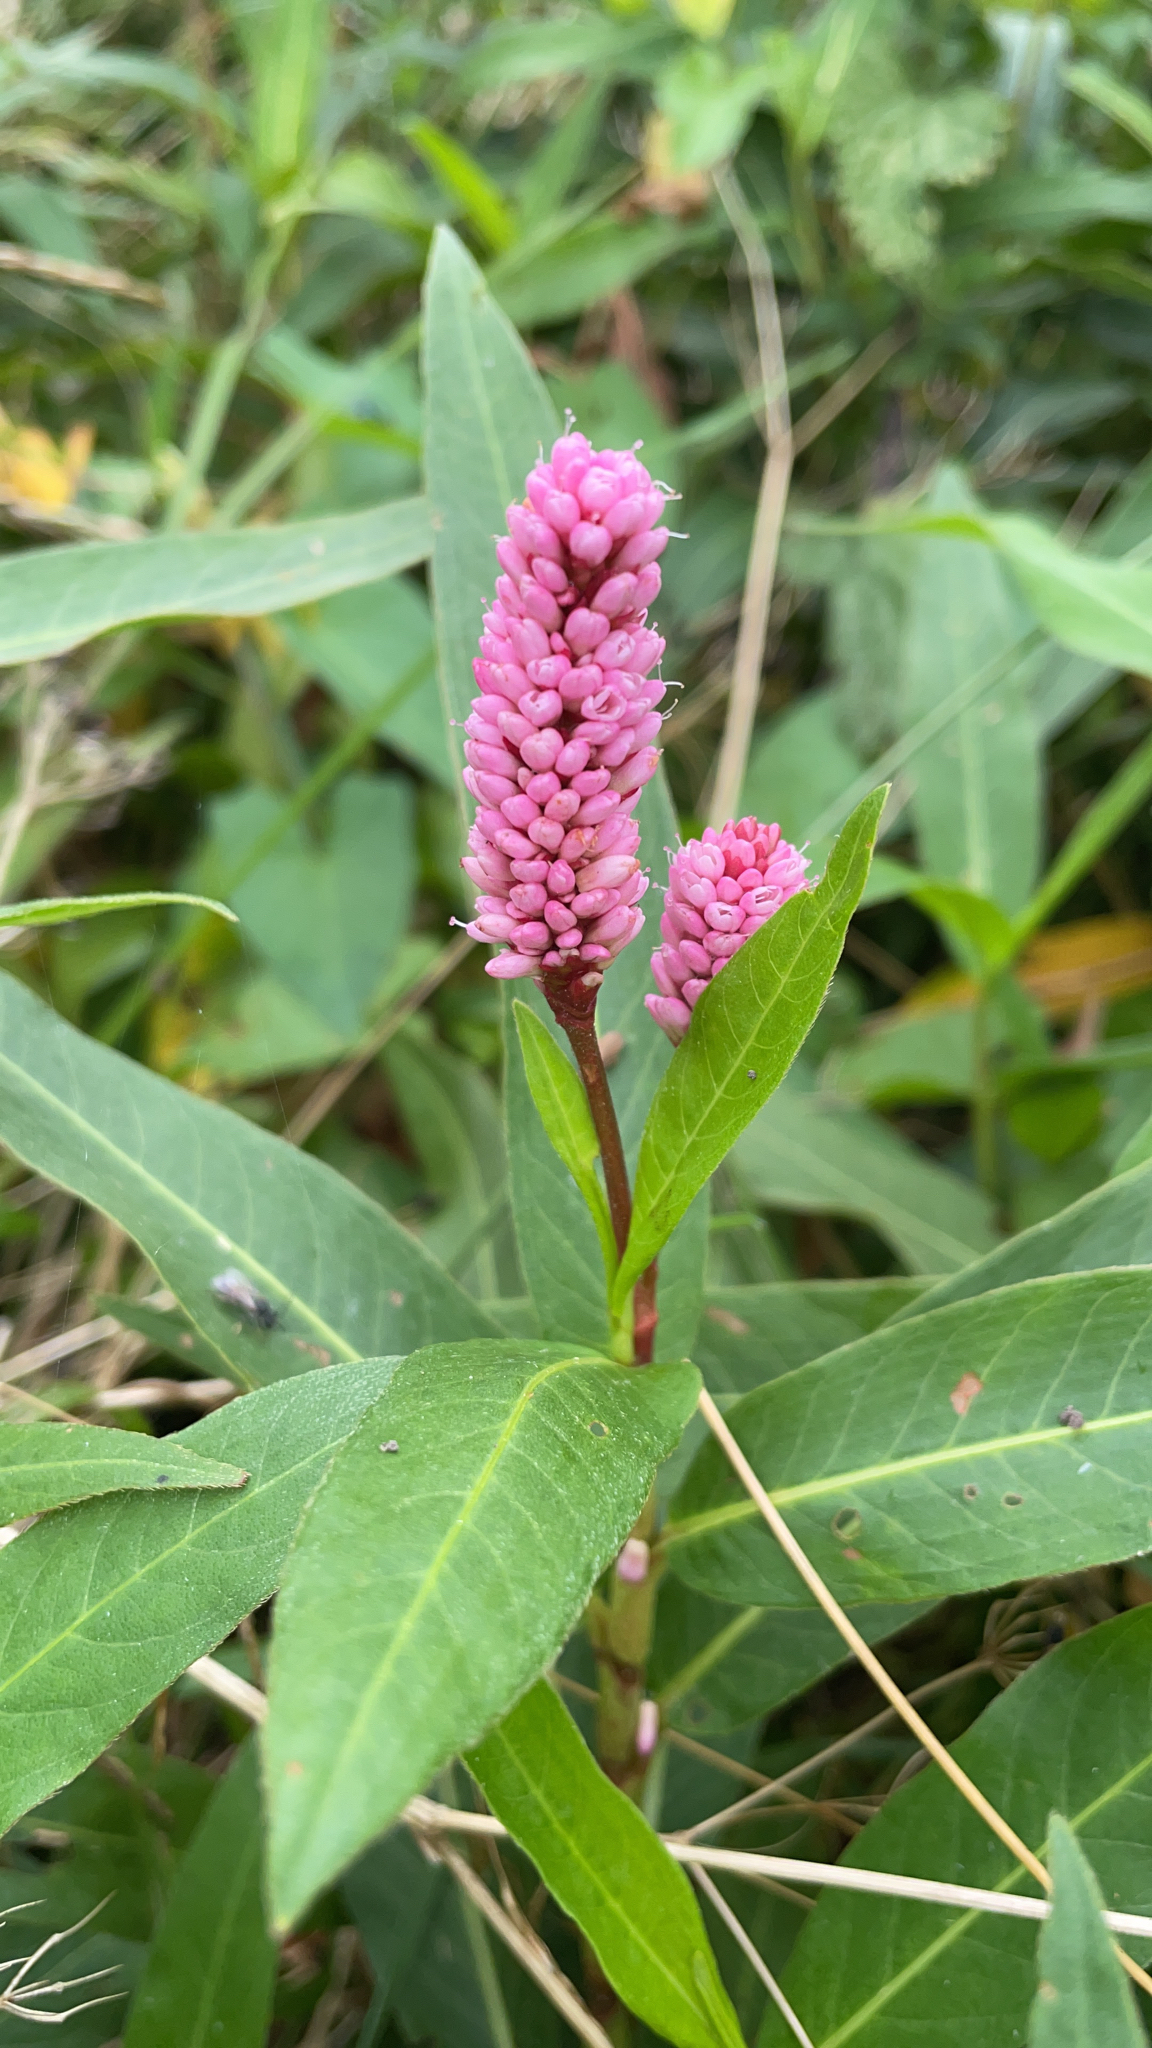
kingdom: Plantae
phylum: Tracheophyta
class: Magnoliopsida
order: Caryophyllales
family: Polygonaceae
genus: Persicaria
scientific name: Persicaria amphibia
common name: Amphibious bistort
